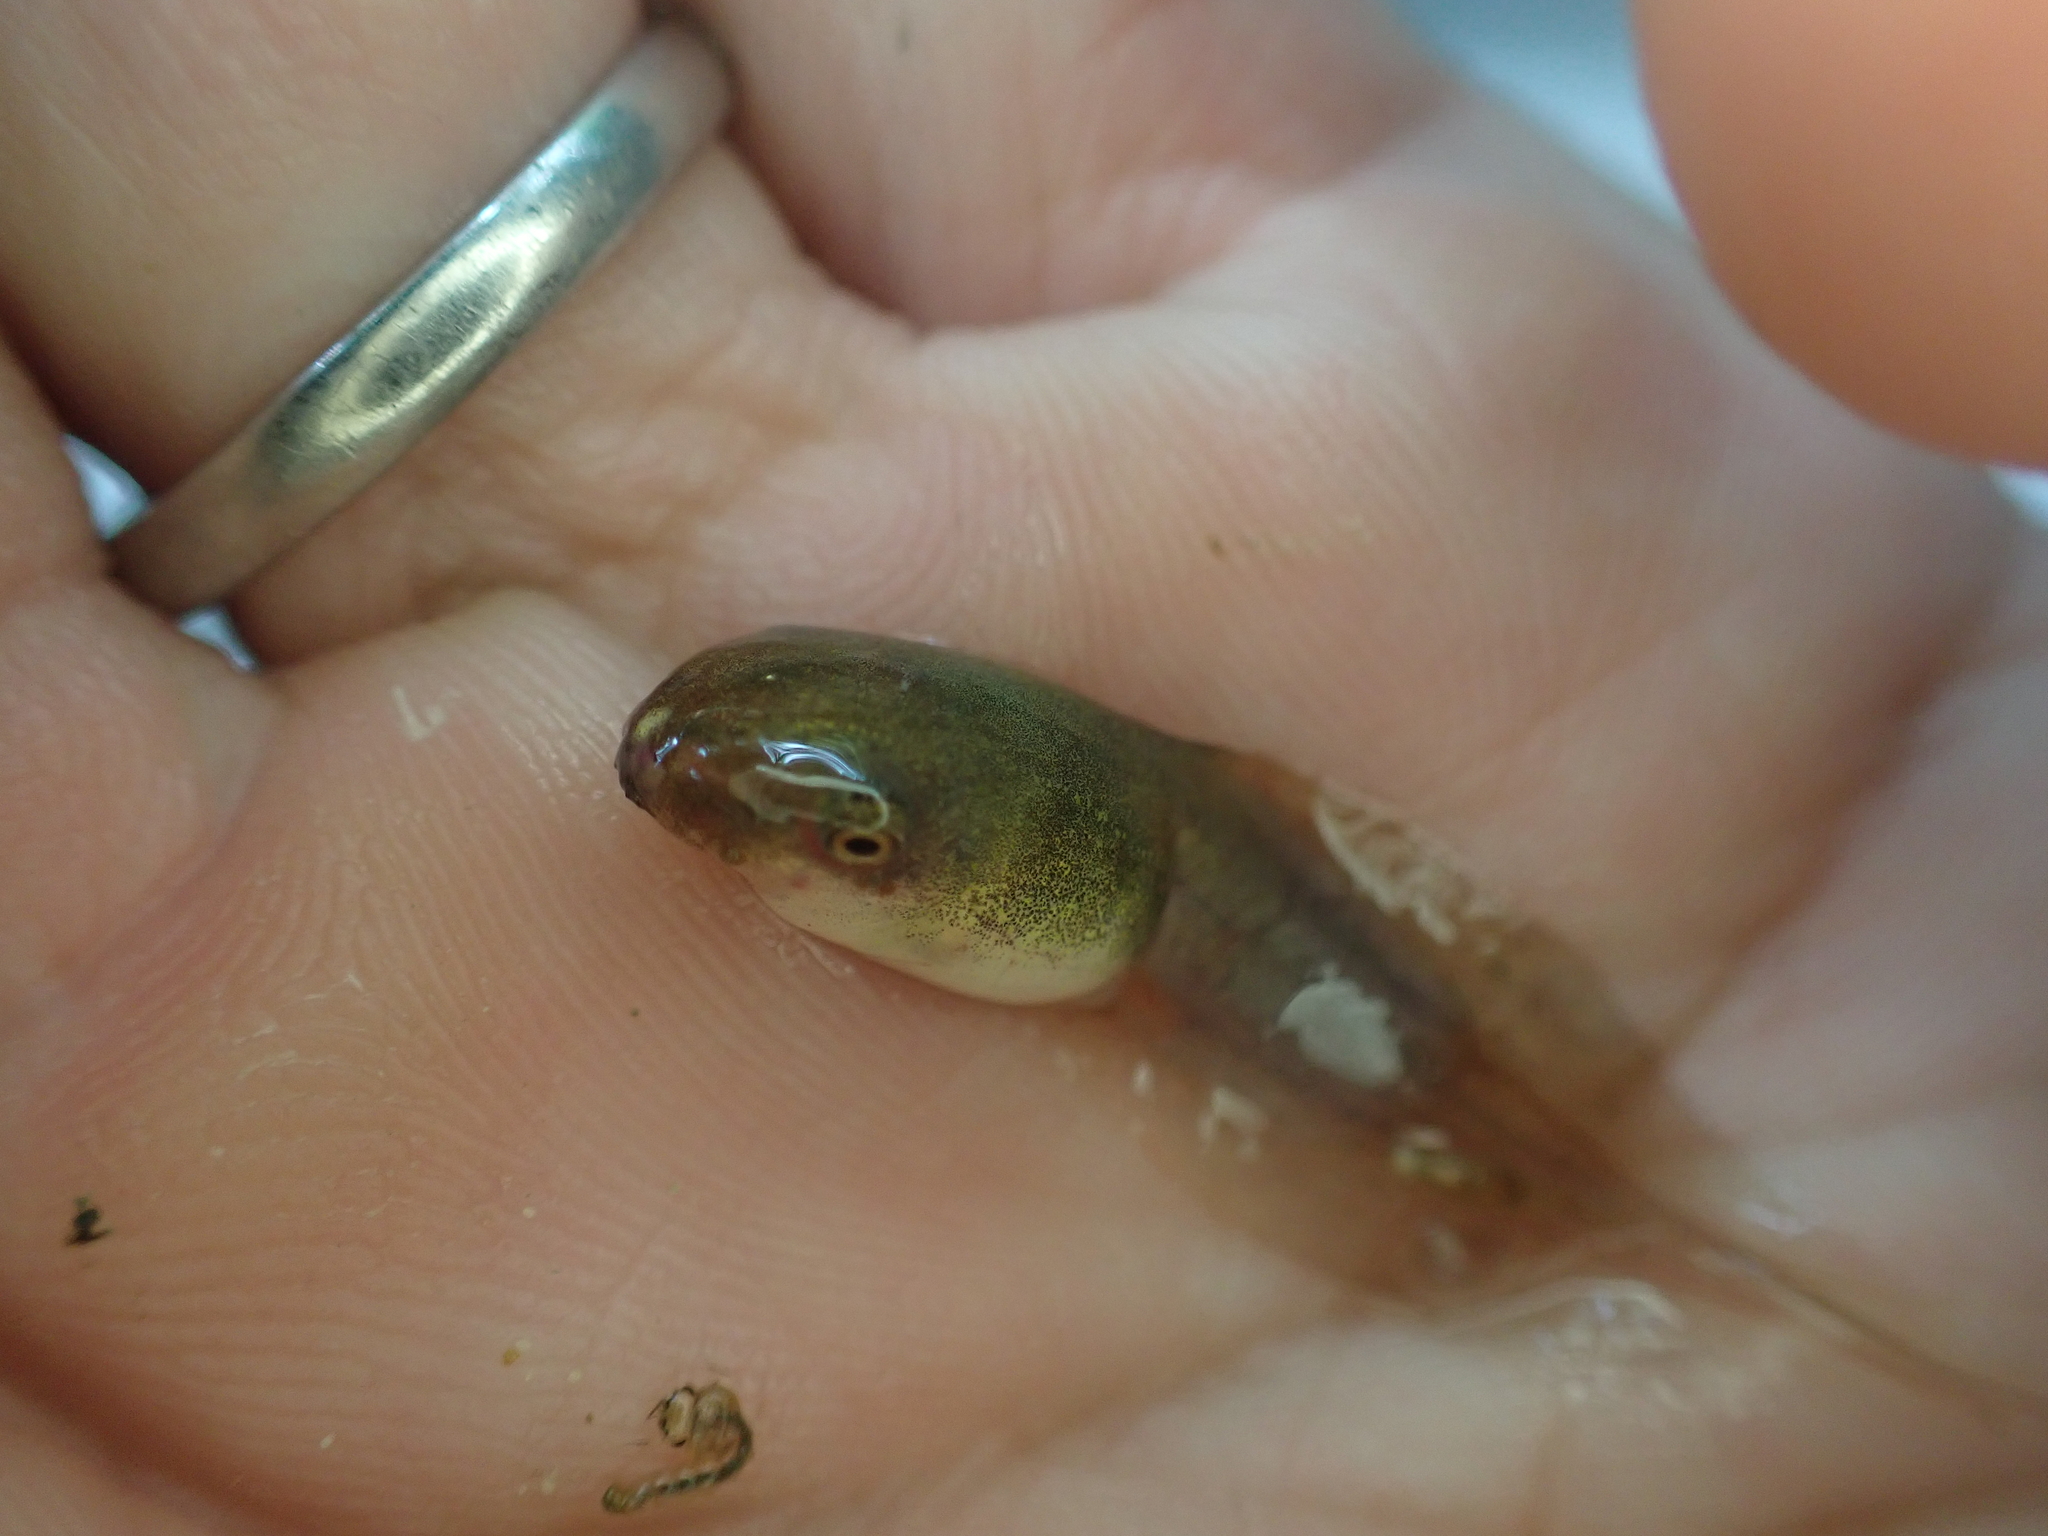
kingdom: Animalia
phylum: Chordata
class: Amphibia
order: Anura
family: Rhacophoridae
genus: Polypedates
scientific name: Polypedates megacephalus
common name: Hong kong whipping frog
